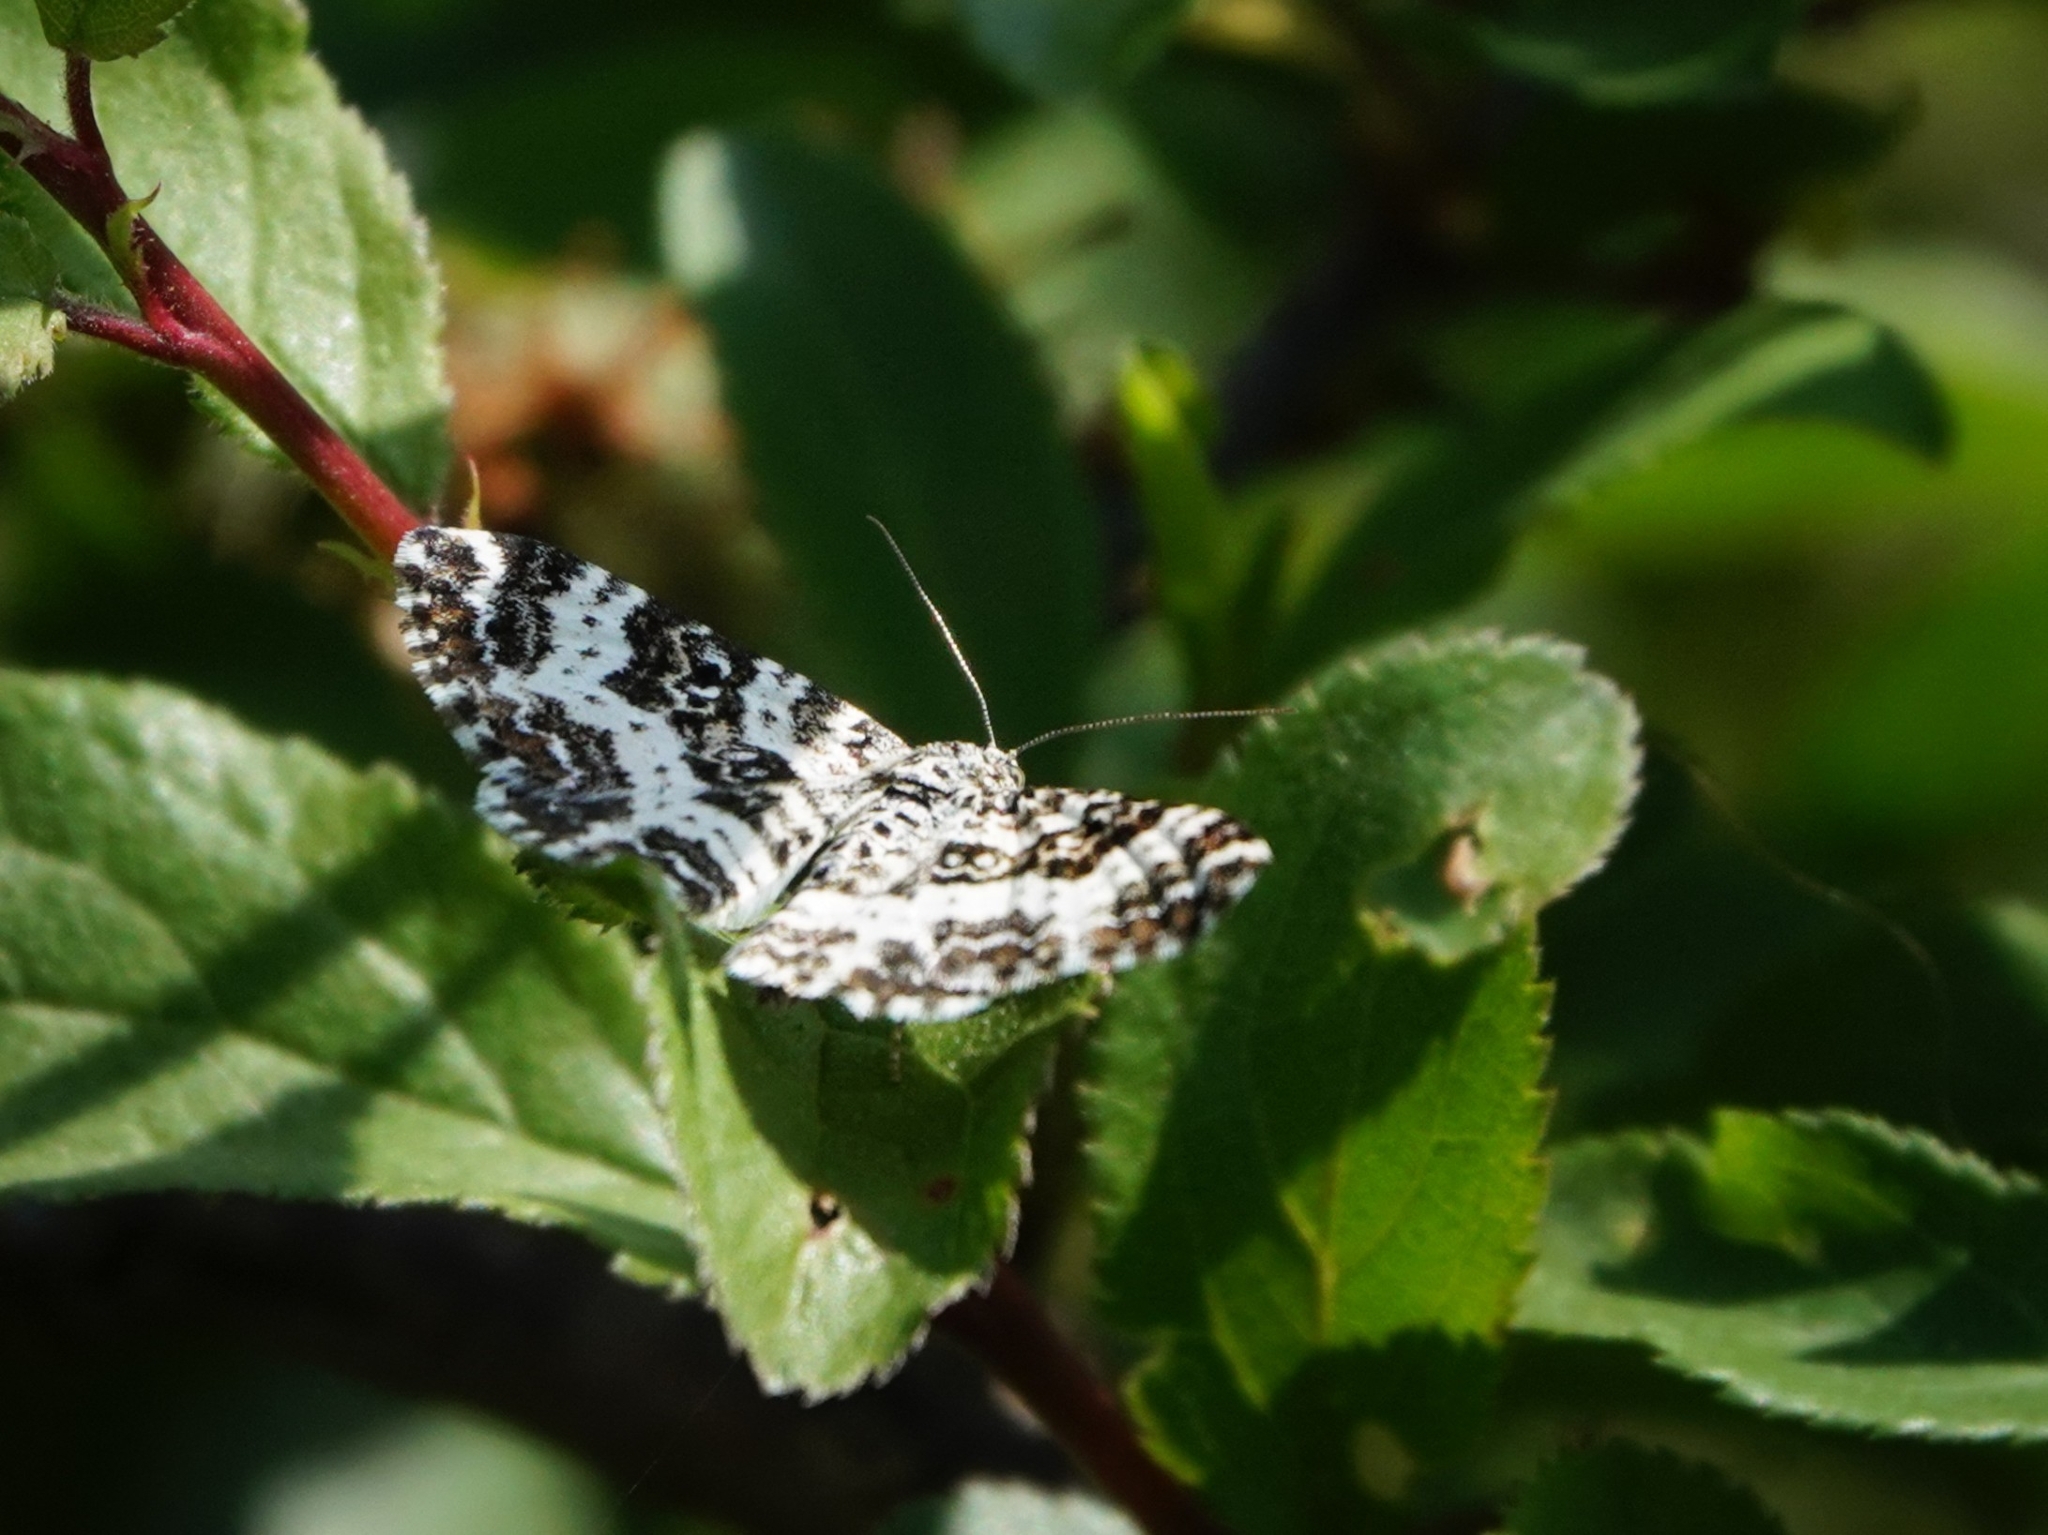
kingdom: Animalia
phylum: Arthropoda
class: Insecta
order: Lepidoptera
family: Geometridae
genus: Epirrhoe
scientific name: Epirrhoe tristata
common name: Small argent & sable
